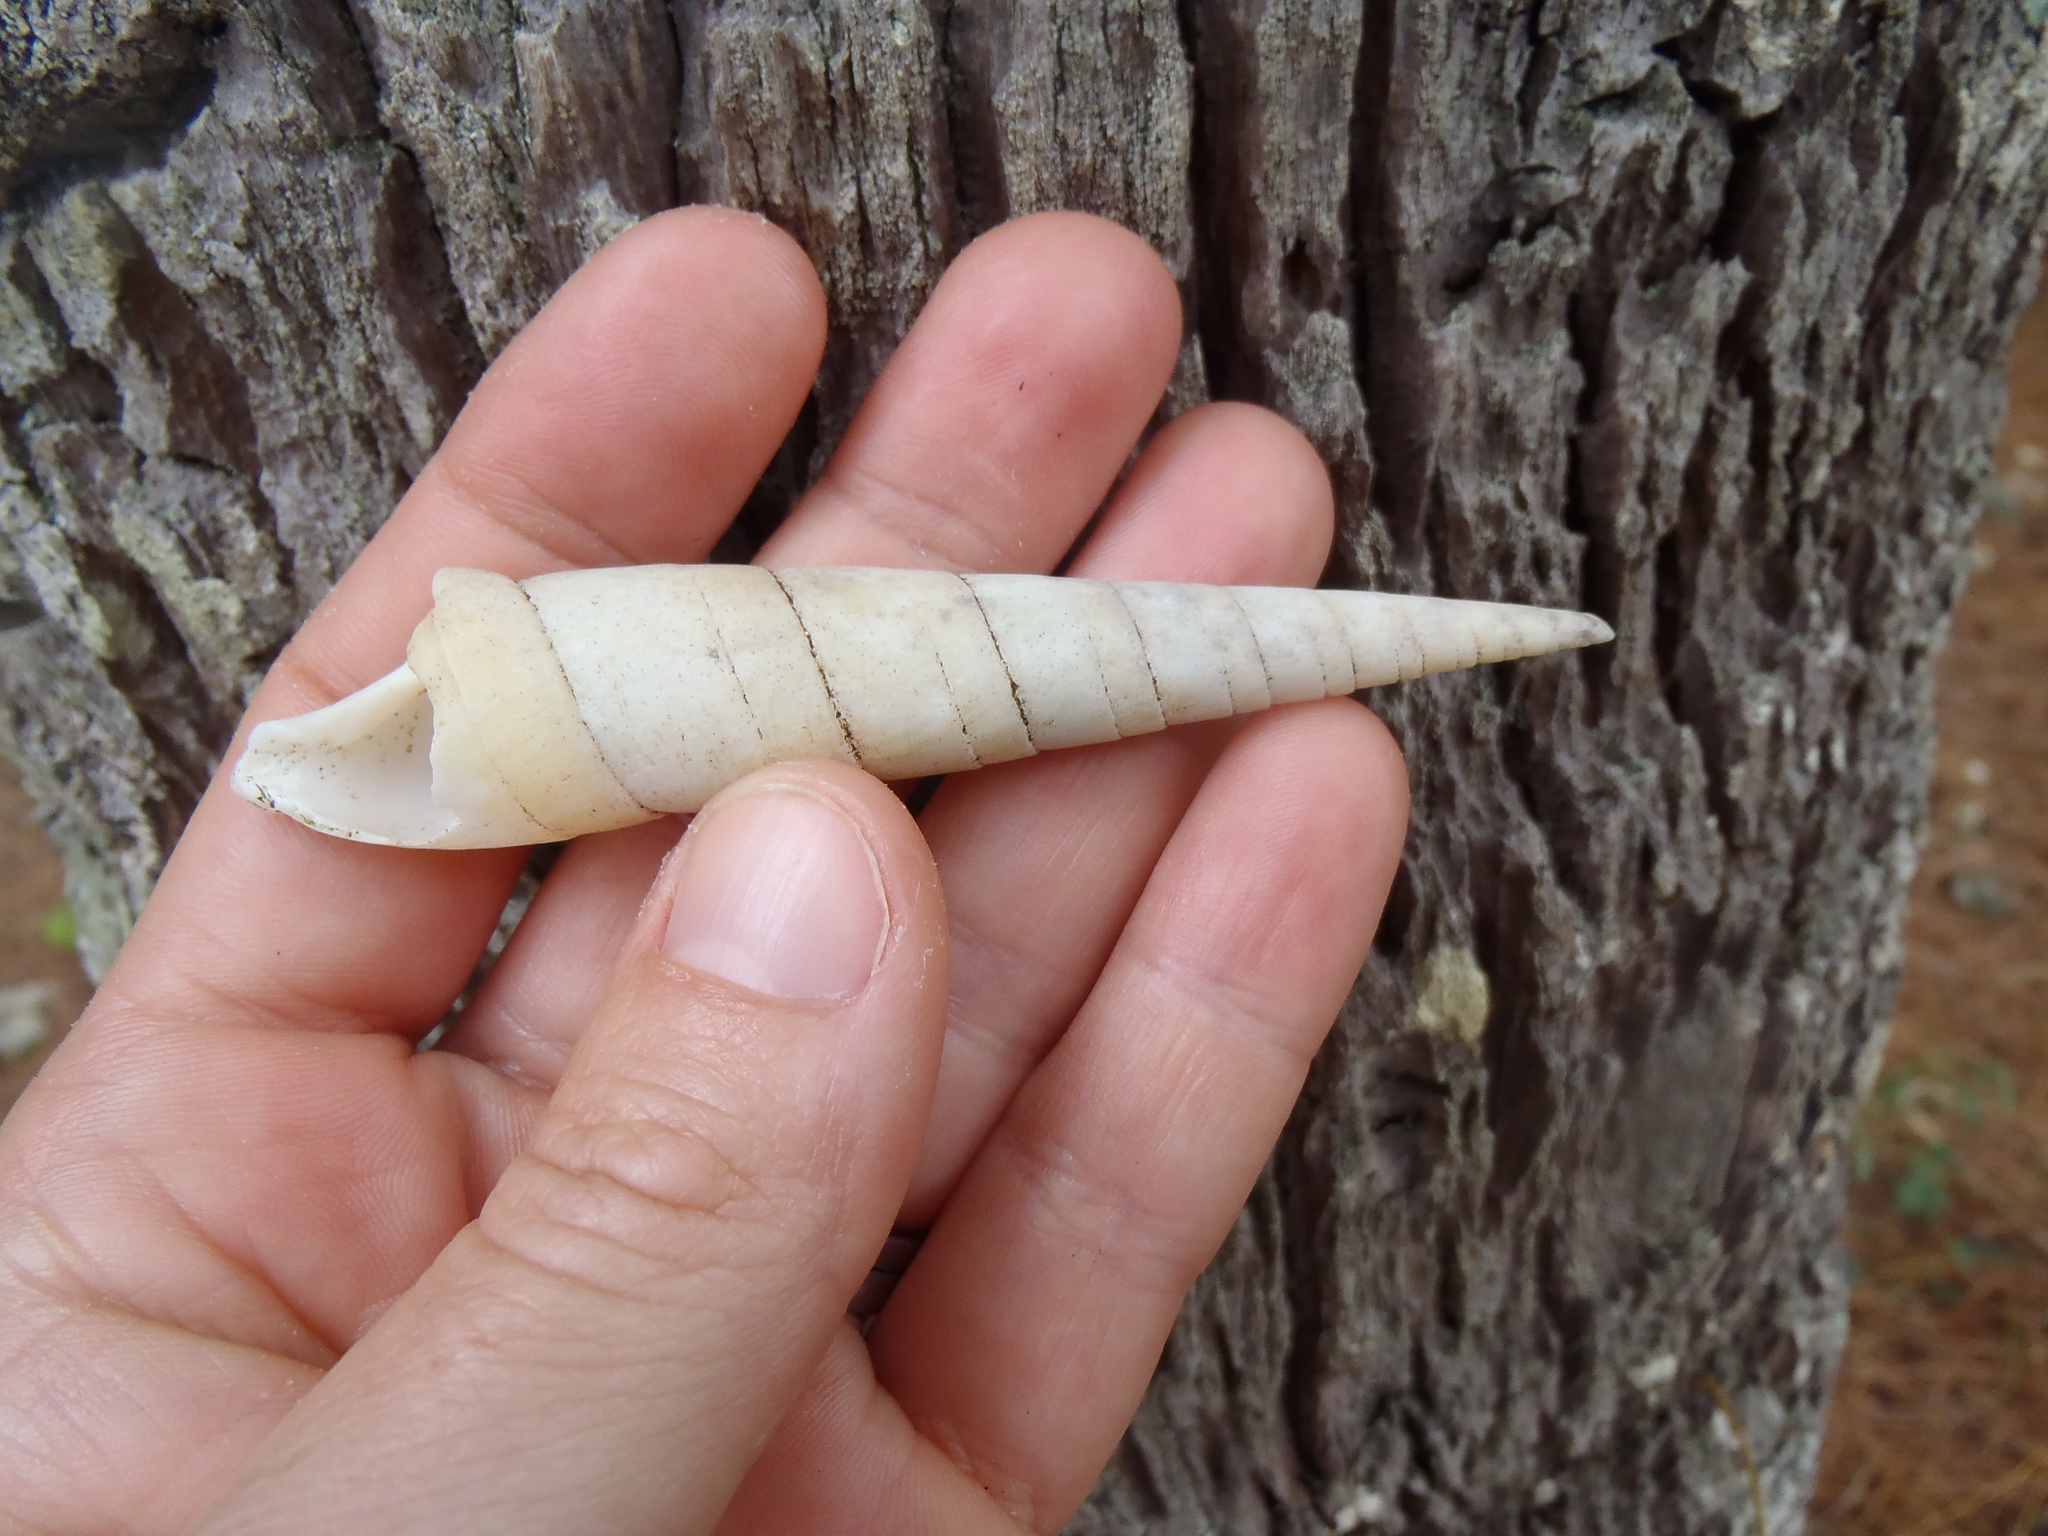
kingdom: Animalia
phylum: Mollusca
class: Gastropoda
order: Neogastropoda
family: Terebridae
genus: Oxymeris
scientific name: Oxymeris dimidiata
